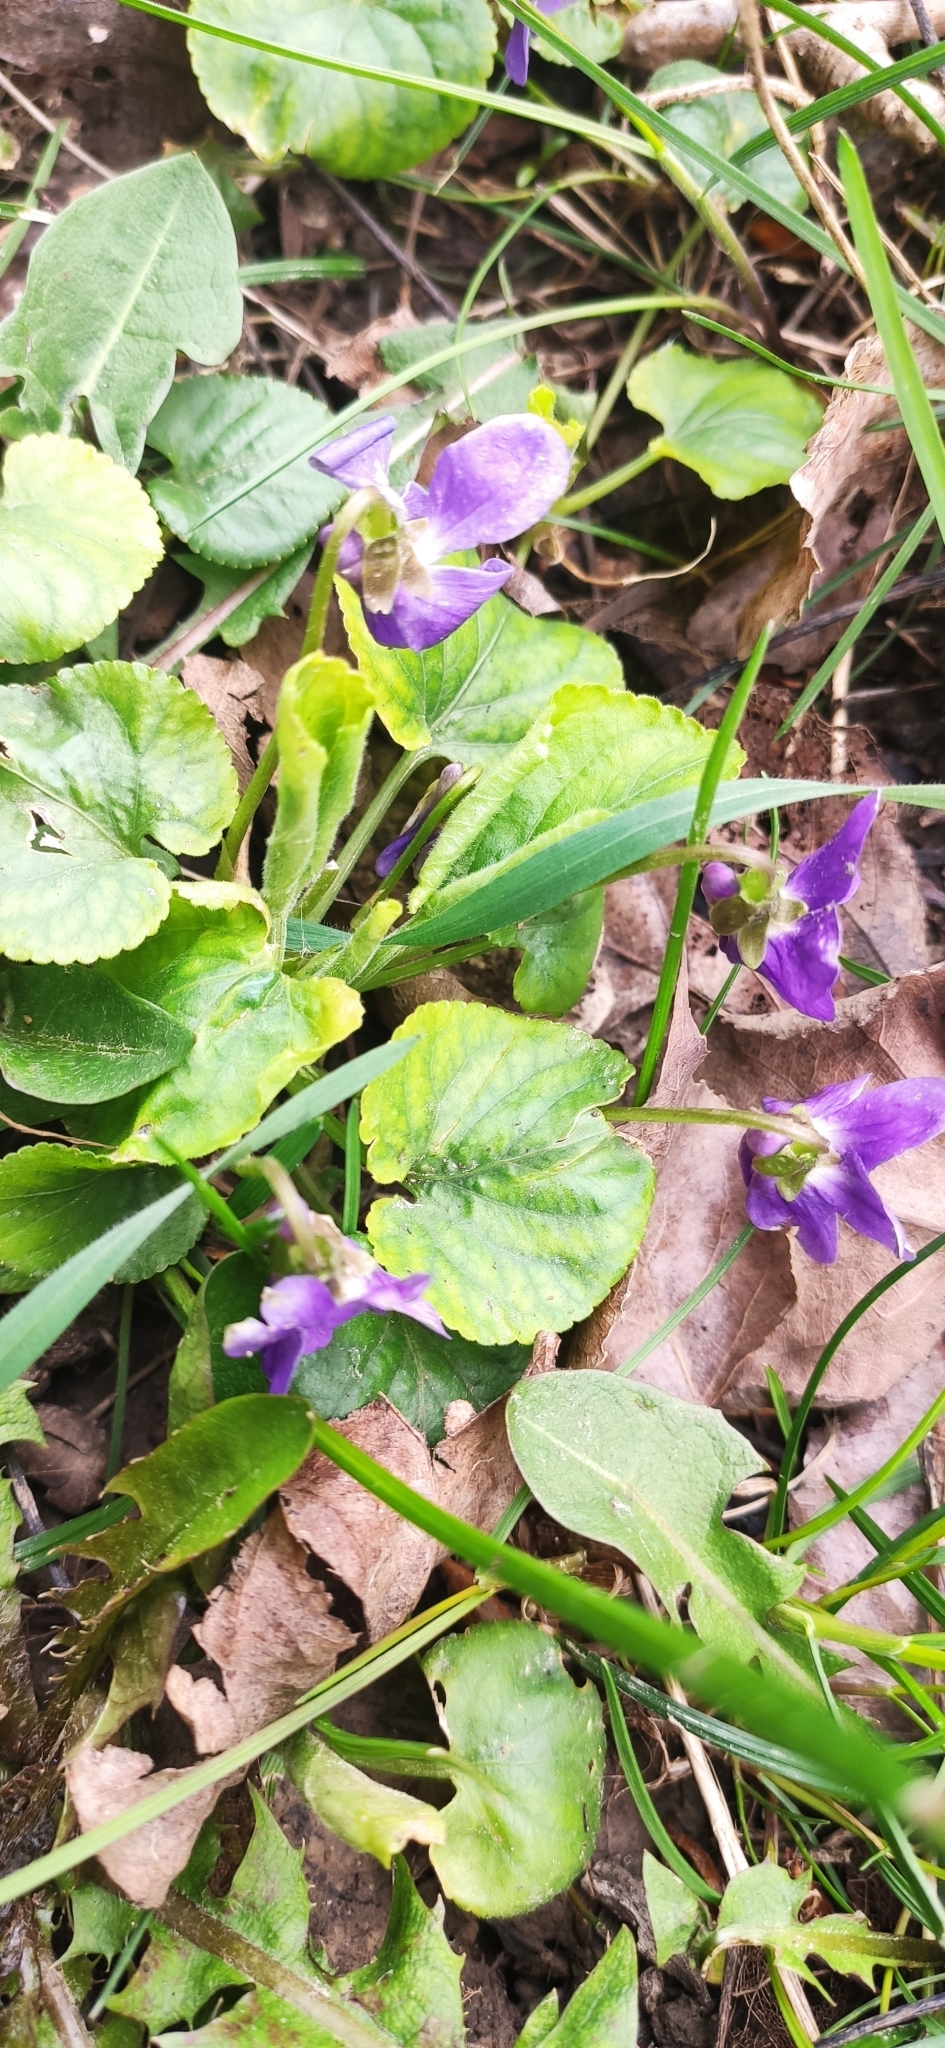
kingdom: Plantae
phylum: Tracheophyta
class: Magnoliopsida
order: Malpighiales
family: Violaceae
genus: Viola
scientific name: Viola odorata
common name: Sweet violet
